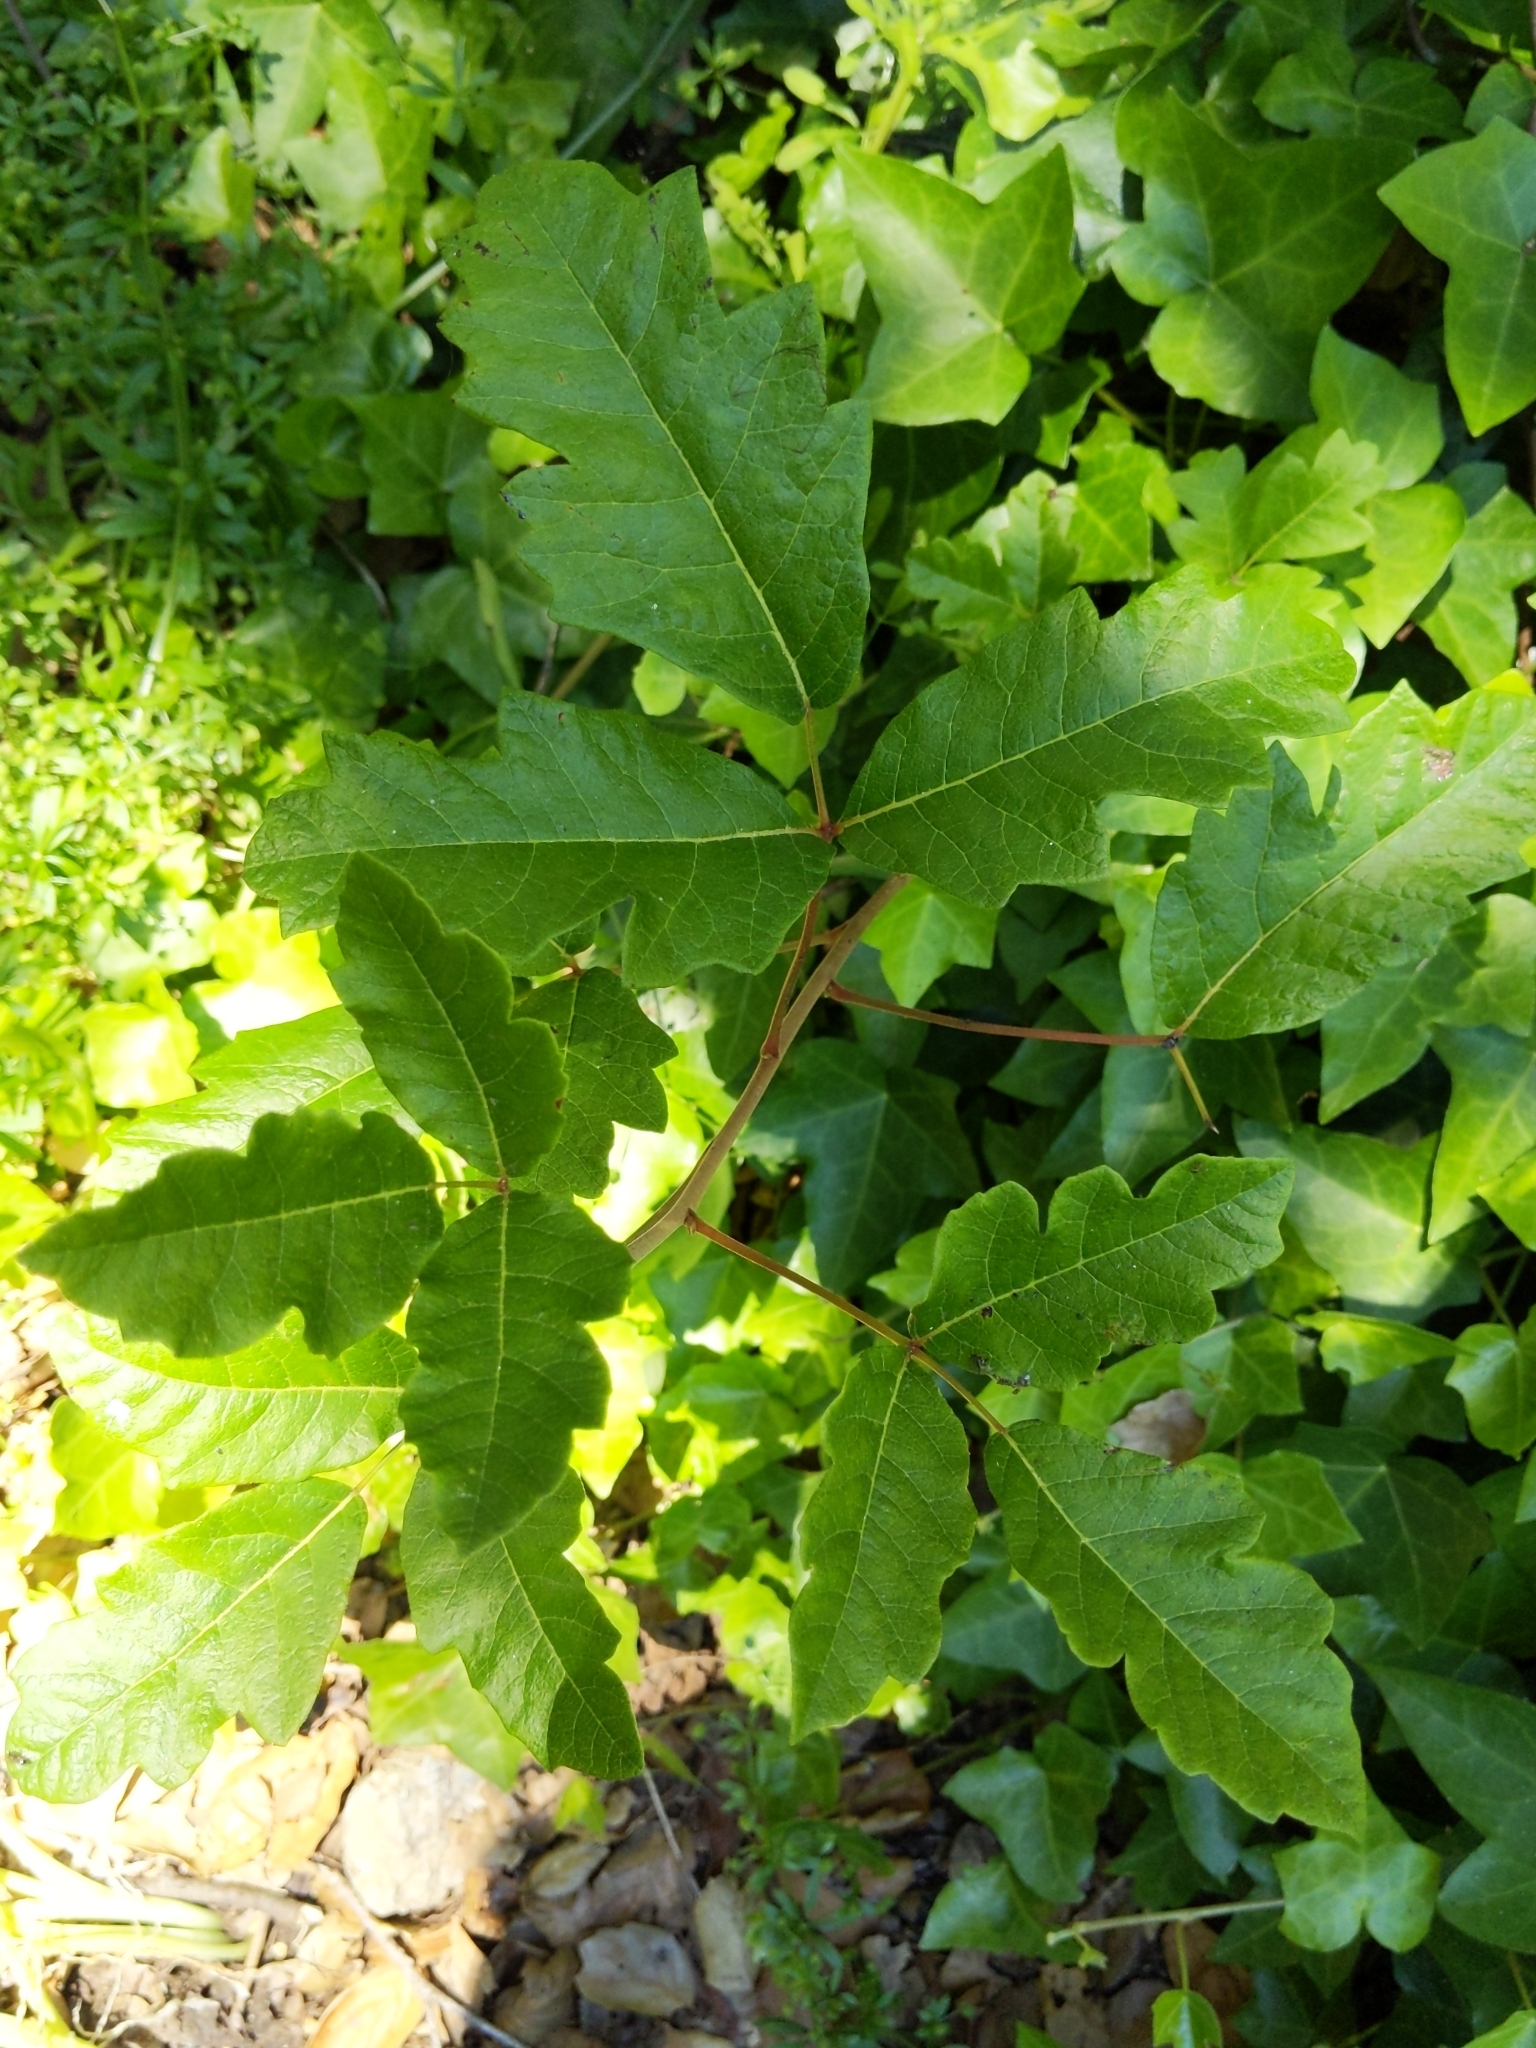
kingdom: Plantae
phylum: Tracheophyta
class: Magnoliopsida
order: Sapindales
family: Anacardiaceae
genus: Toxicodendron
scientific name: Toxicodendron diversilobum
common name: Pacific poison-oak
